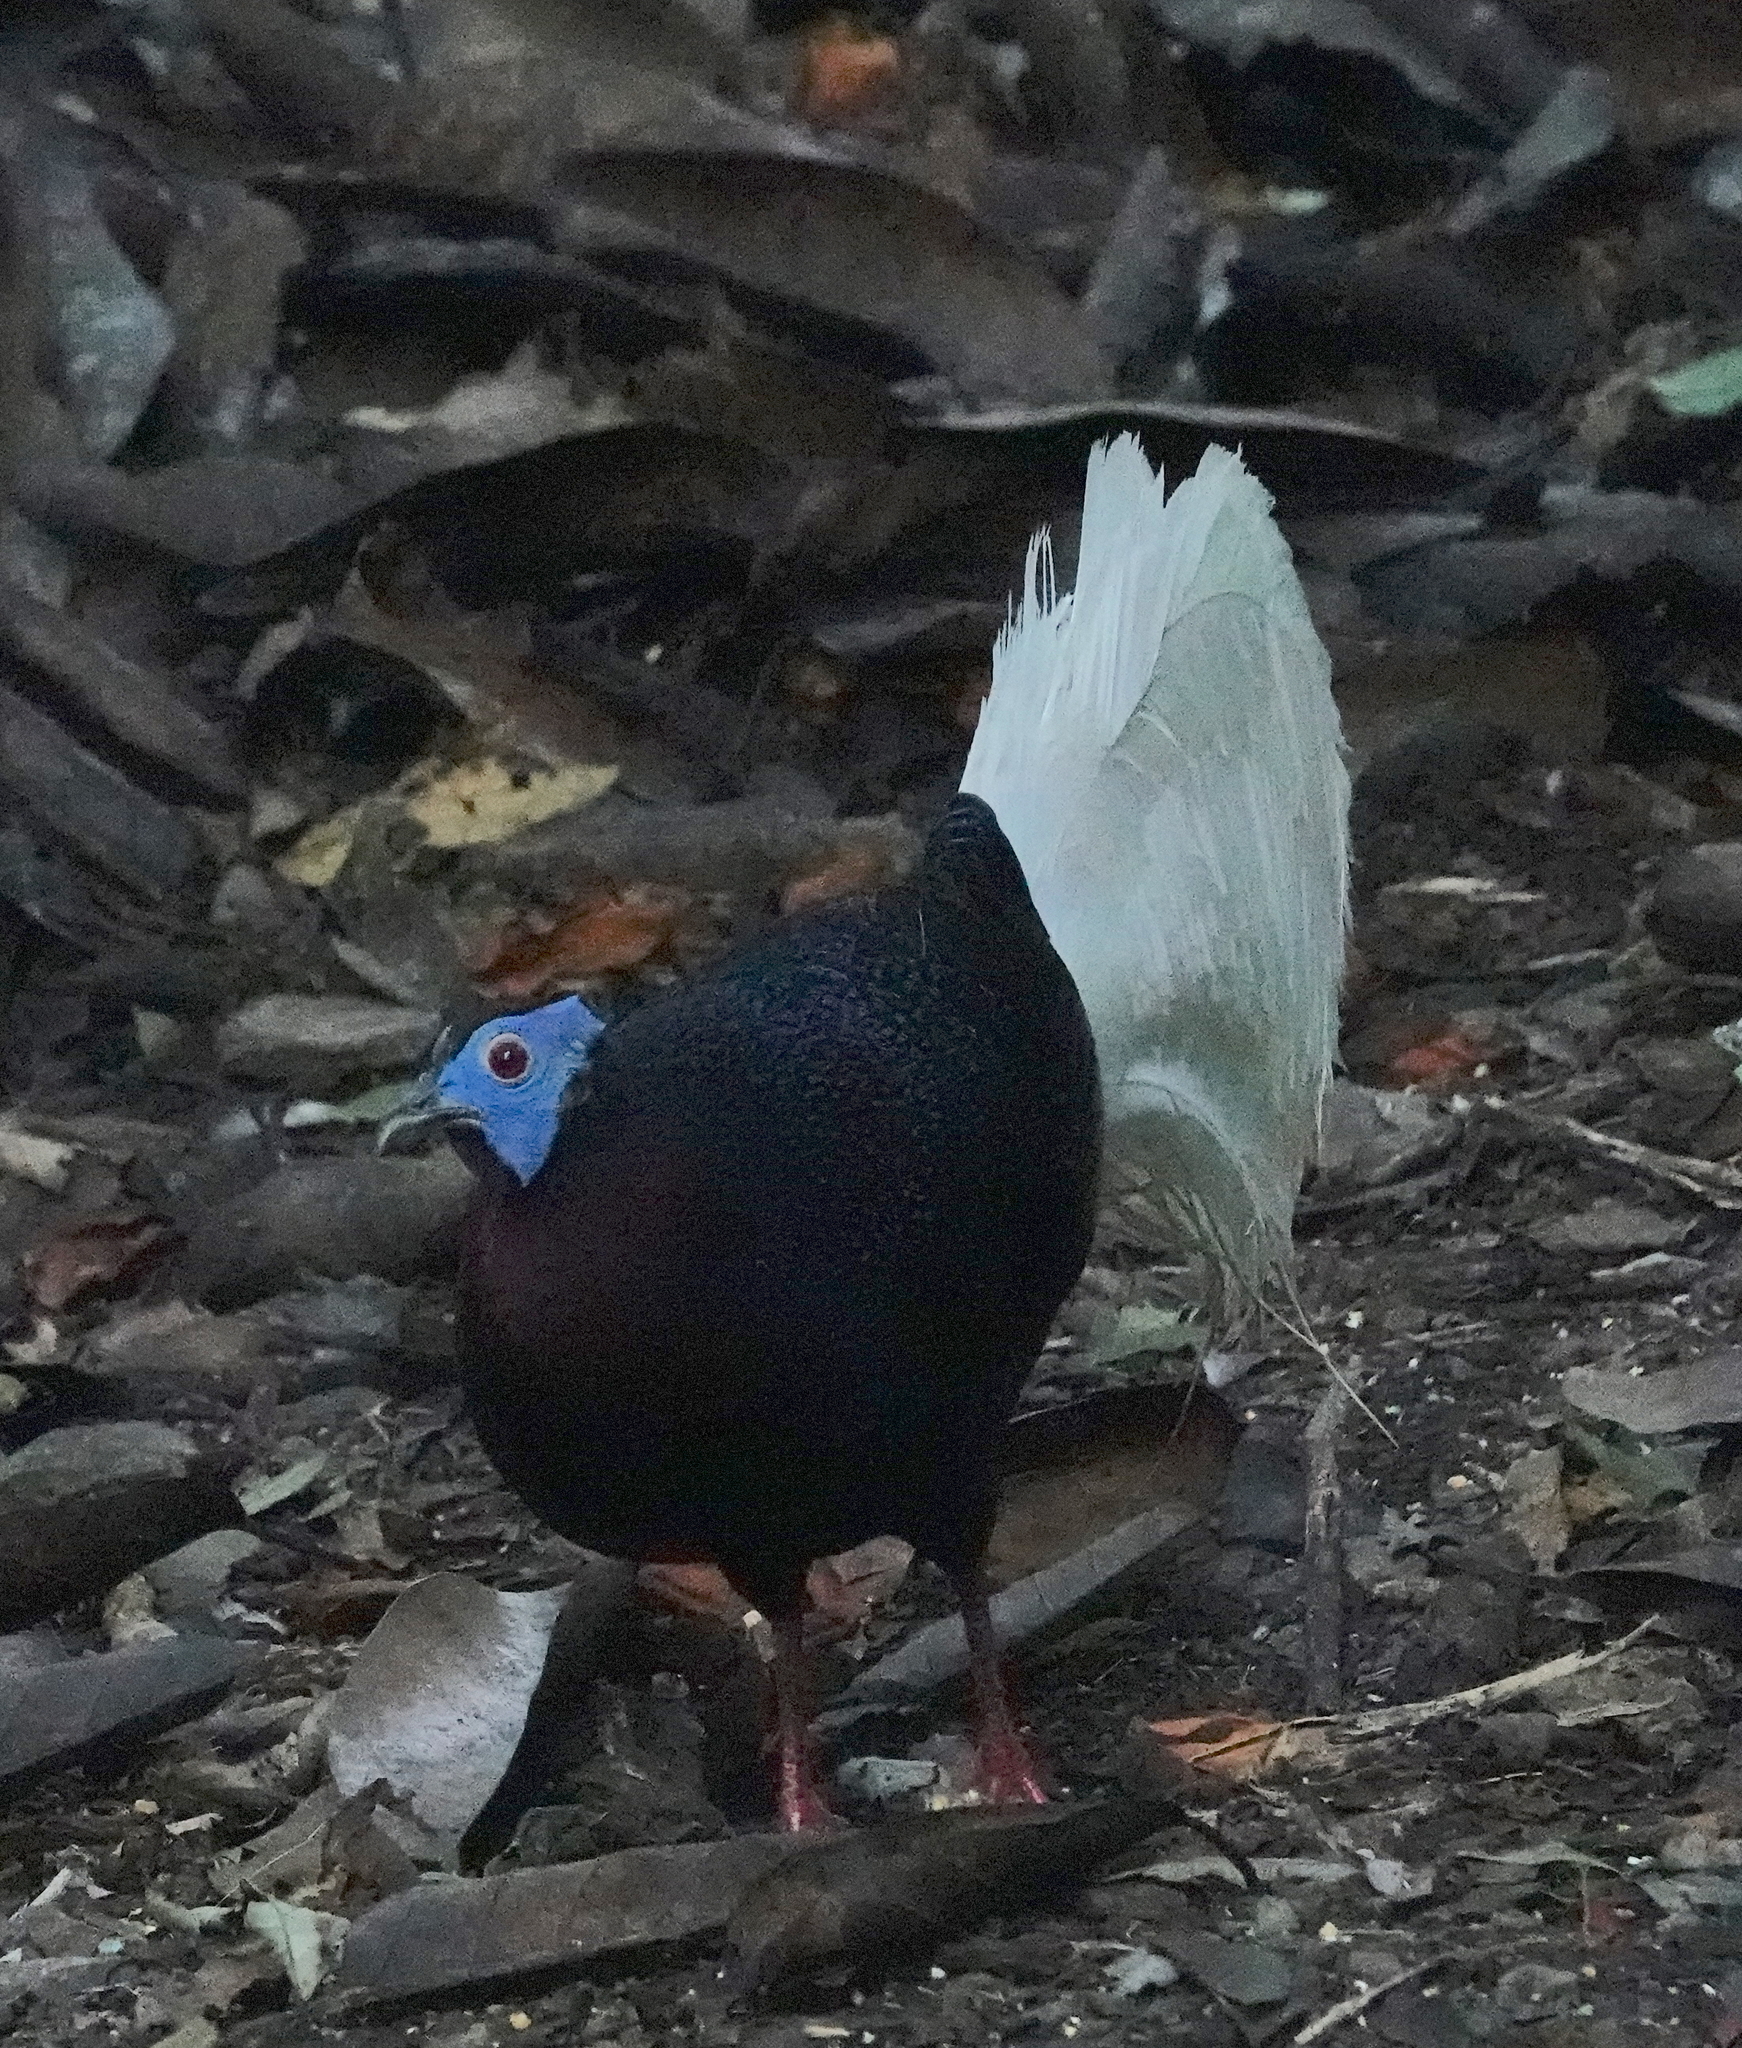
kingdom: Animalia
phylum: Chordata
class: Aves
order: Galliformes
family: Phasianidae
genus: Lophura
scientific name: Lophura bulweri
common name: Bulwer's pheasant
